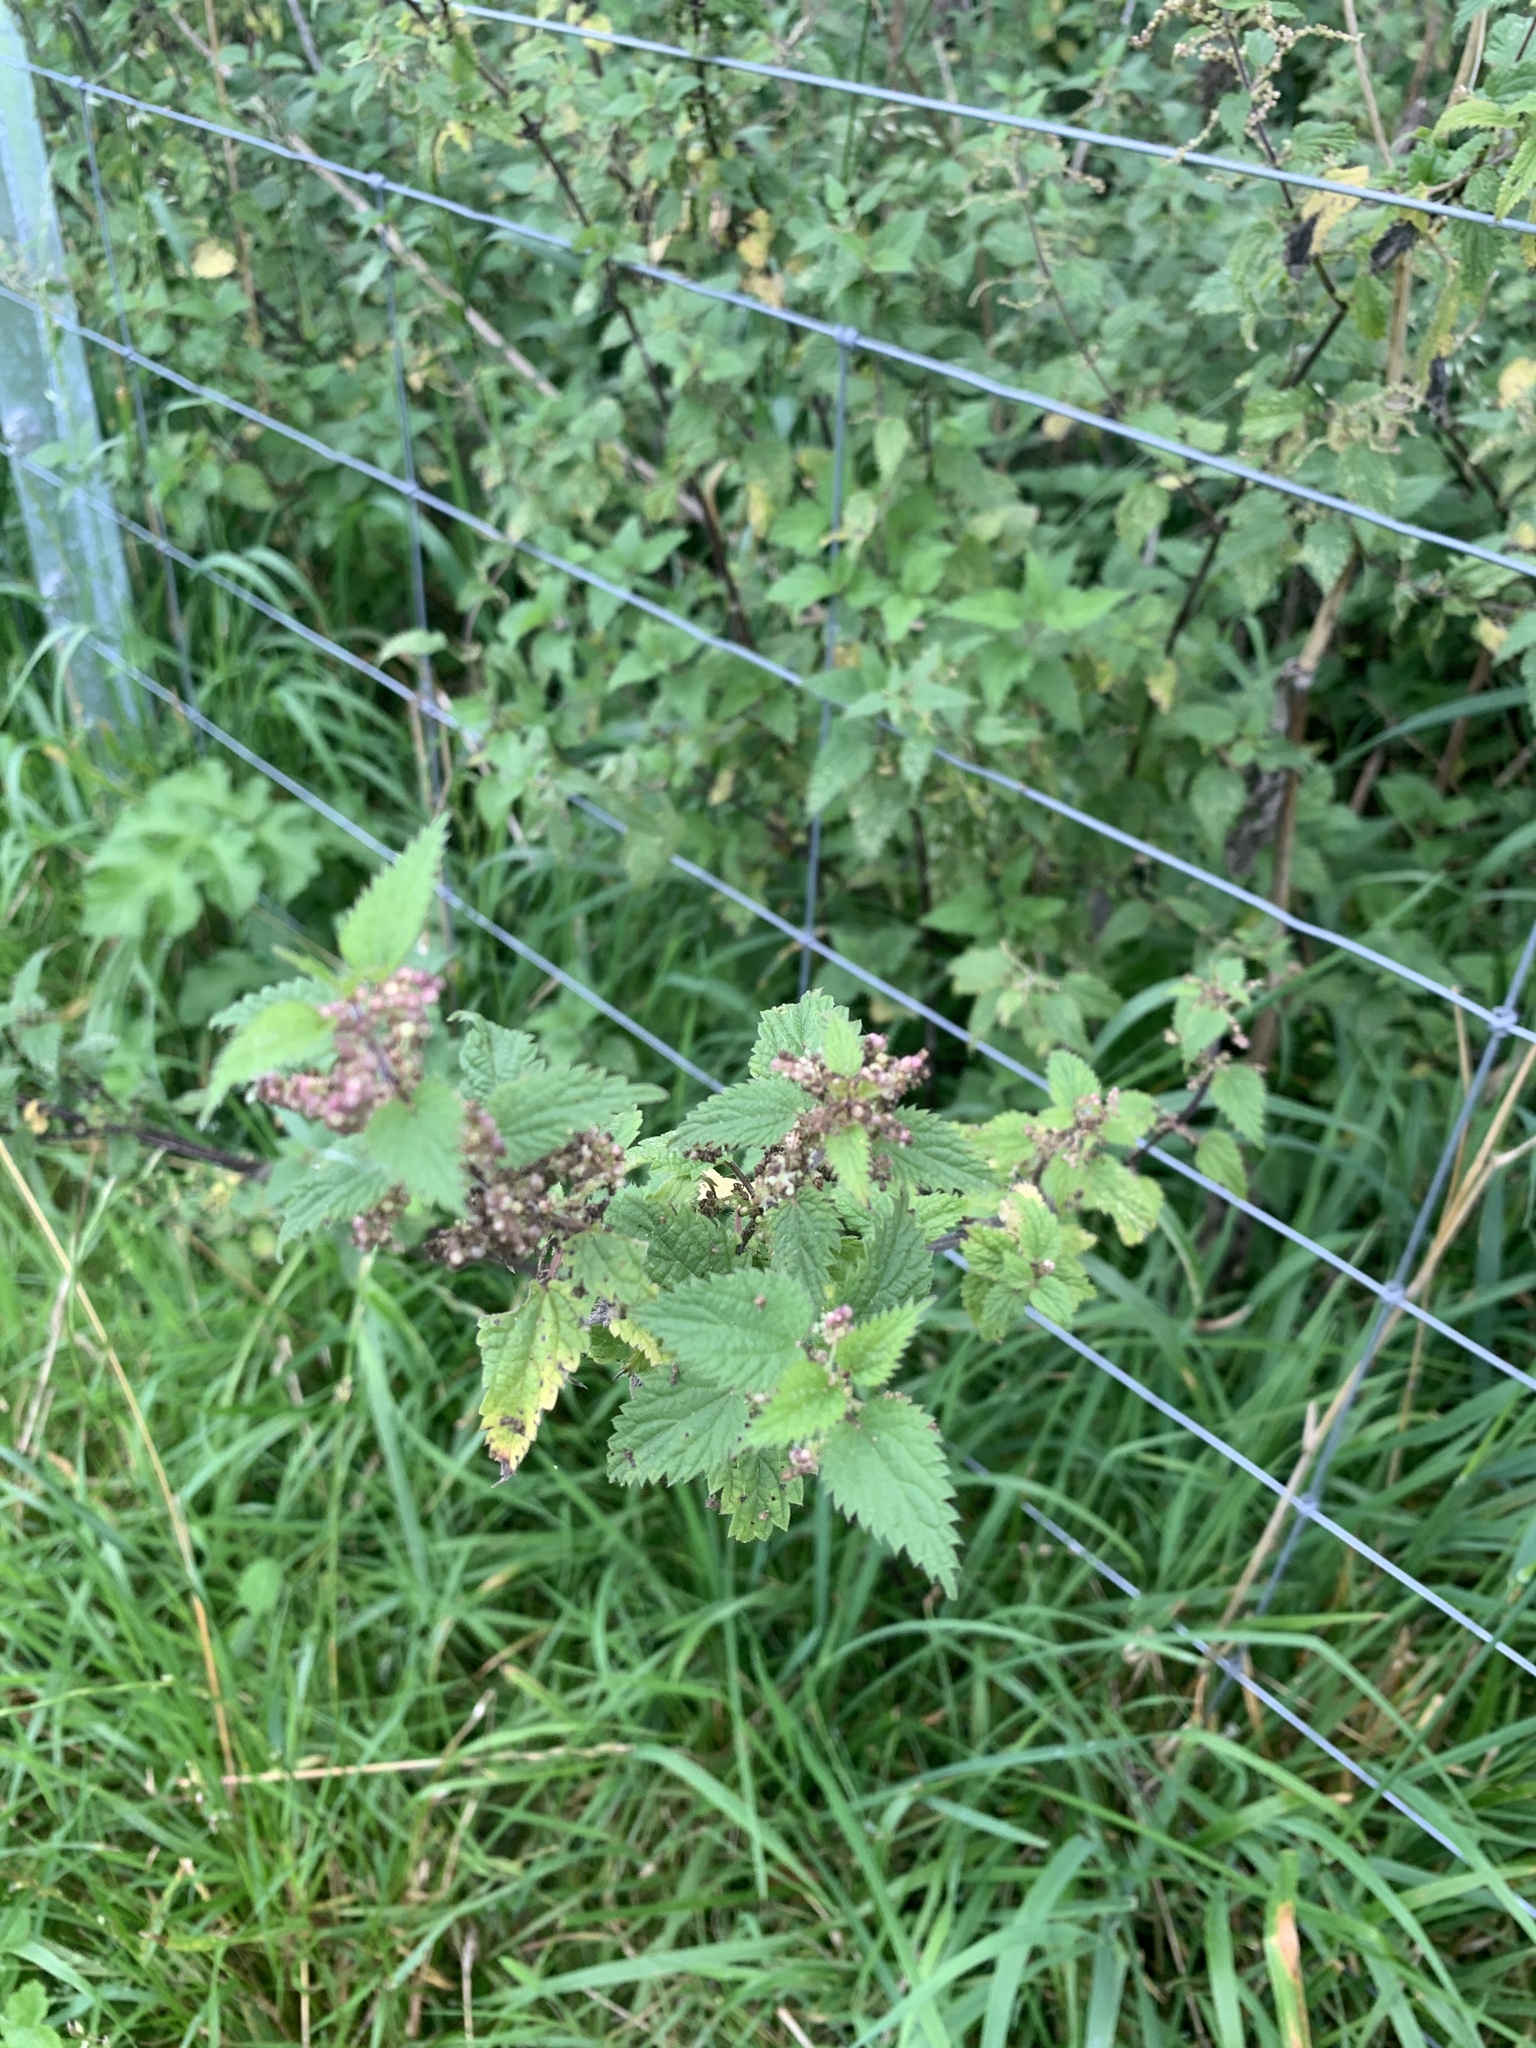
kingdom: Plantae
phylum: Tracheophyta
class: Magnoliopsida
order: Rosales
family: Urticaceae
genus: Urtica
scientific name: Urtica dioica
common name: Common nettle
